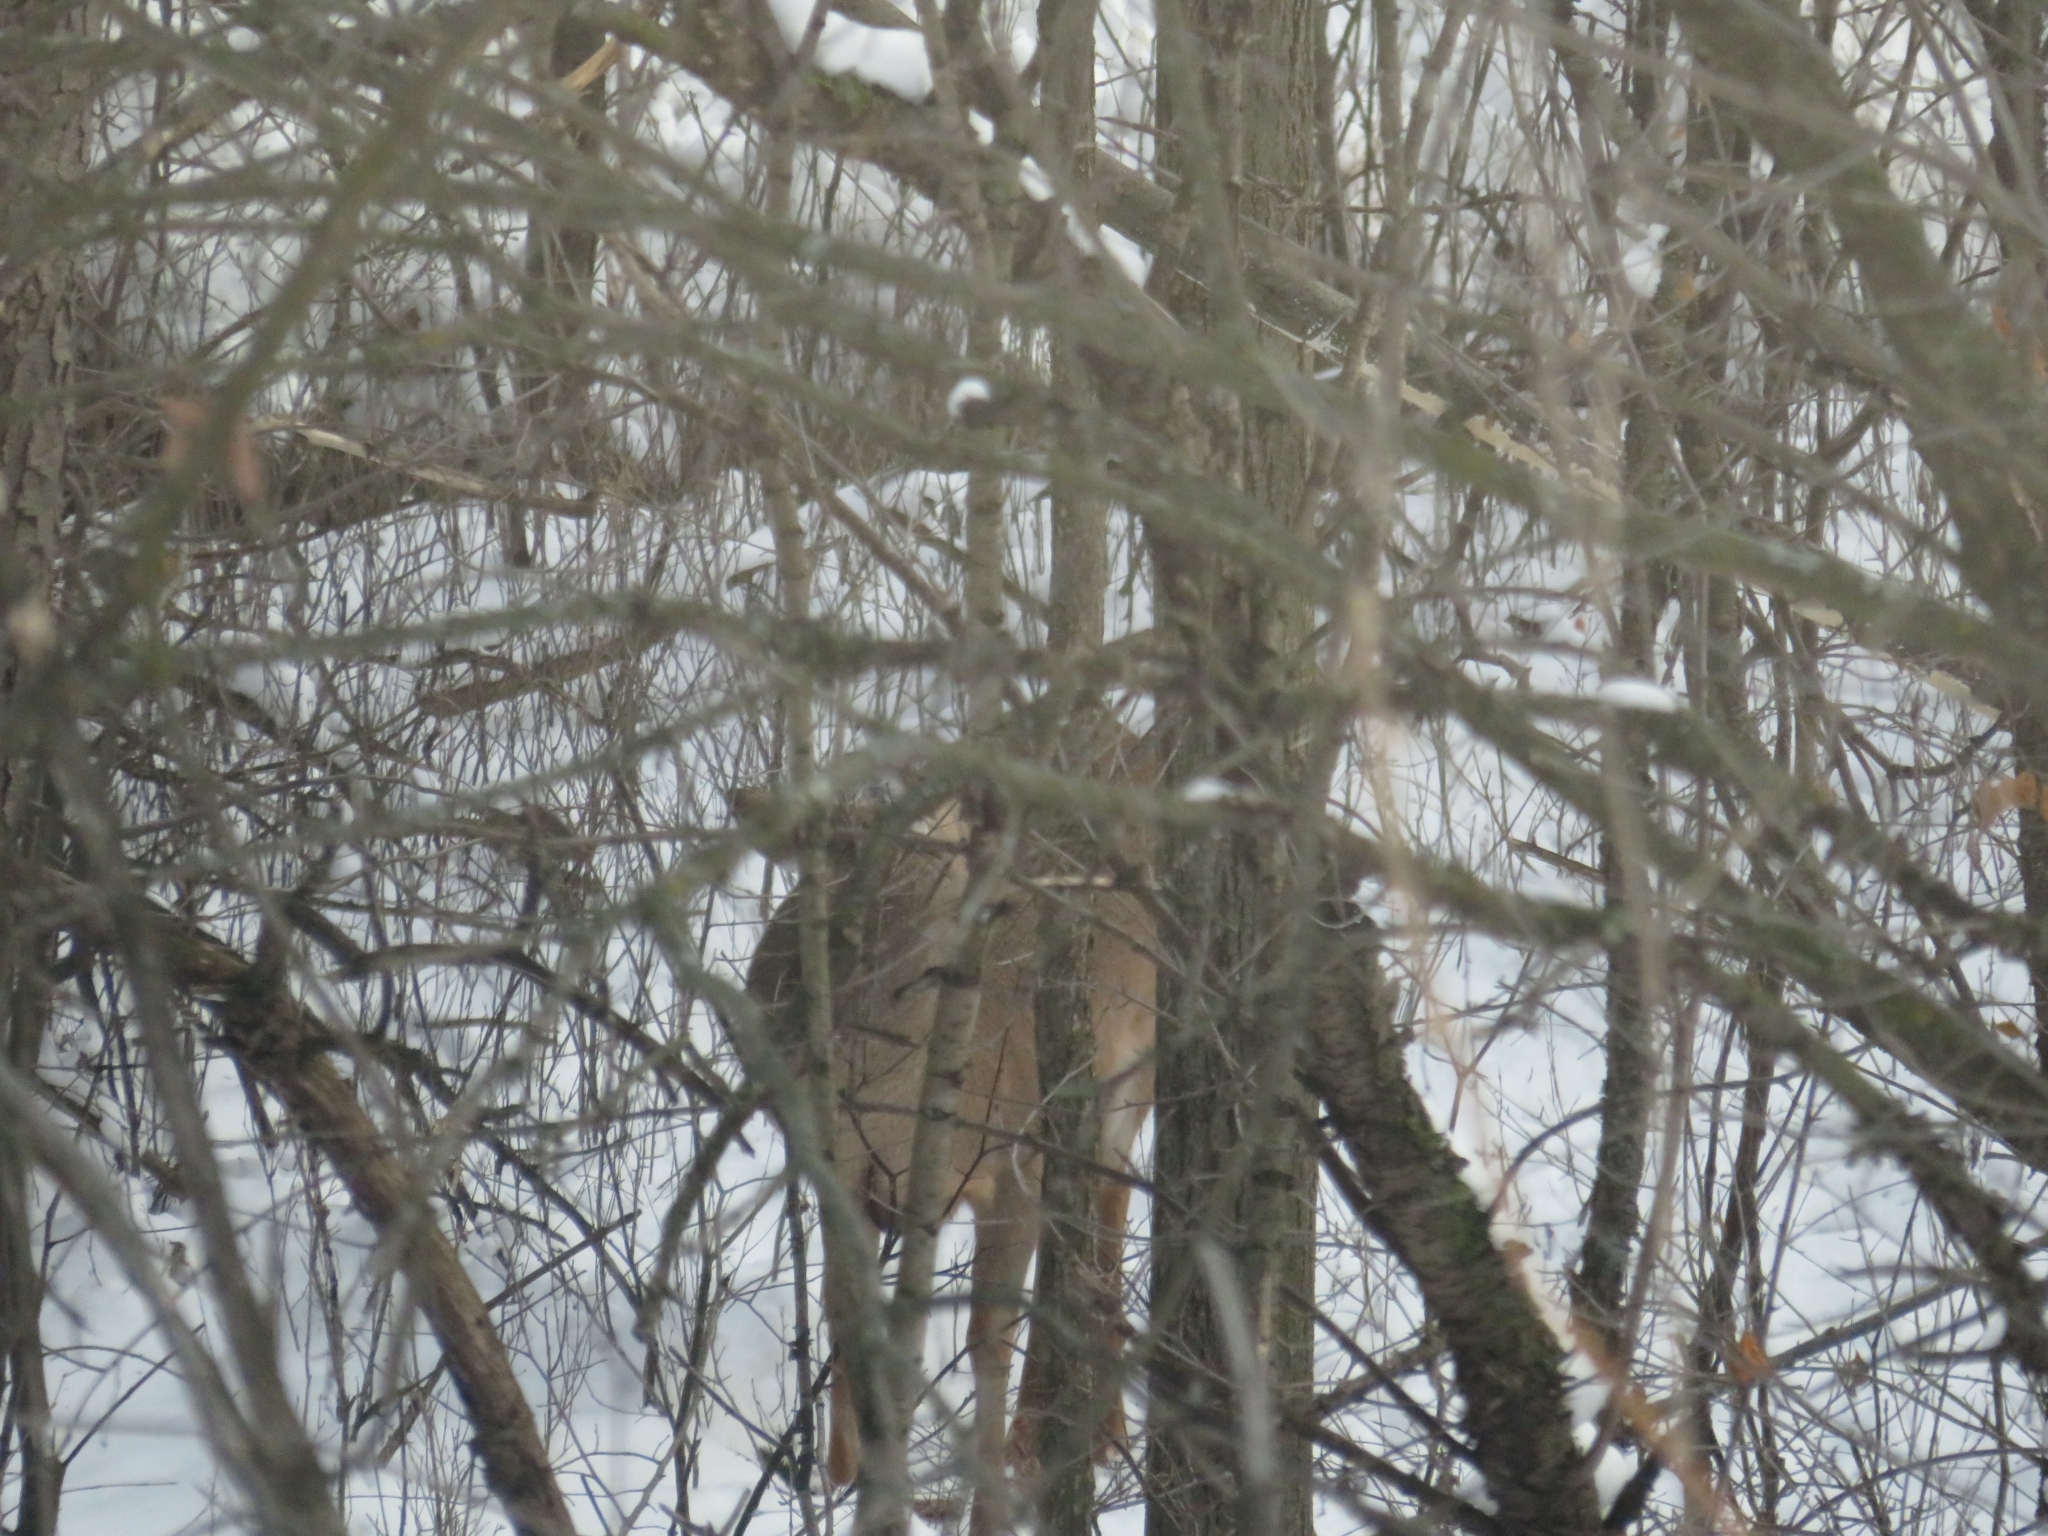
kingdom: Animalia
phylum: Chordata
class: Mammalia
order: Artiodactyla
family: Cervidae
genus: Odocoileus
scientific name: Odocoileus virginianus
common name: White-tailed deer
